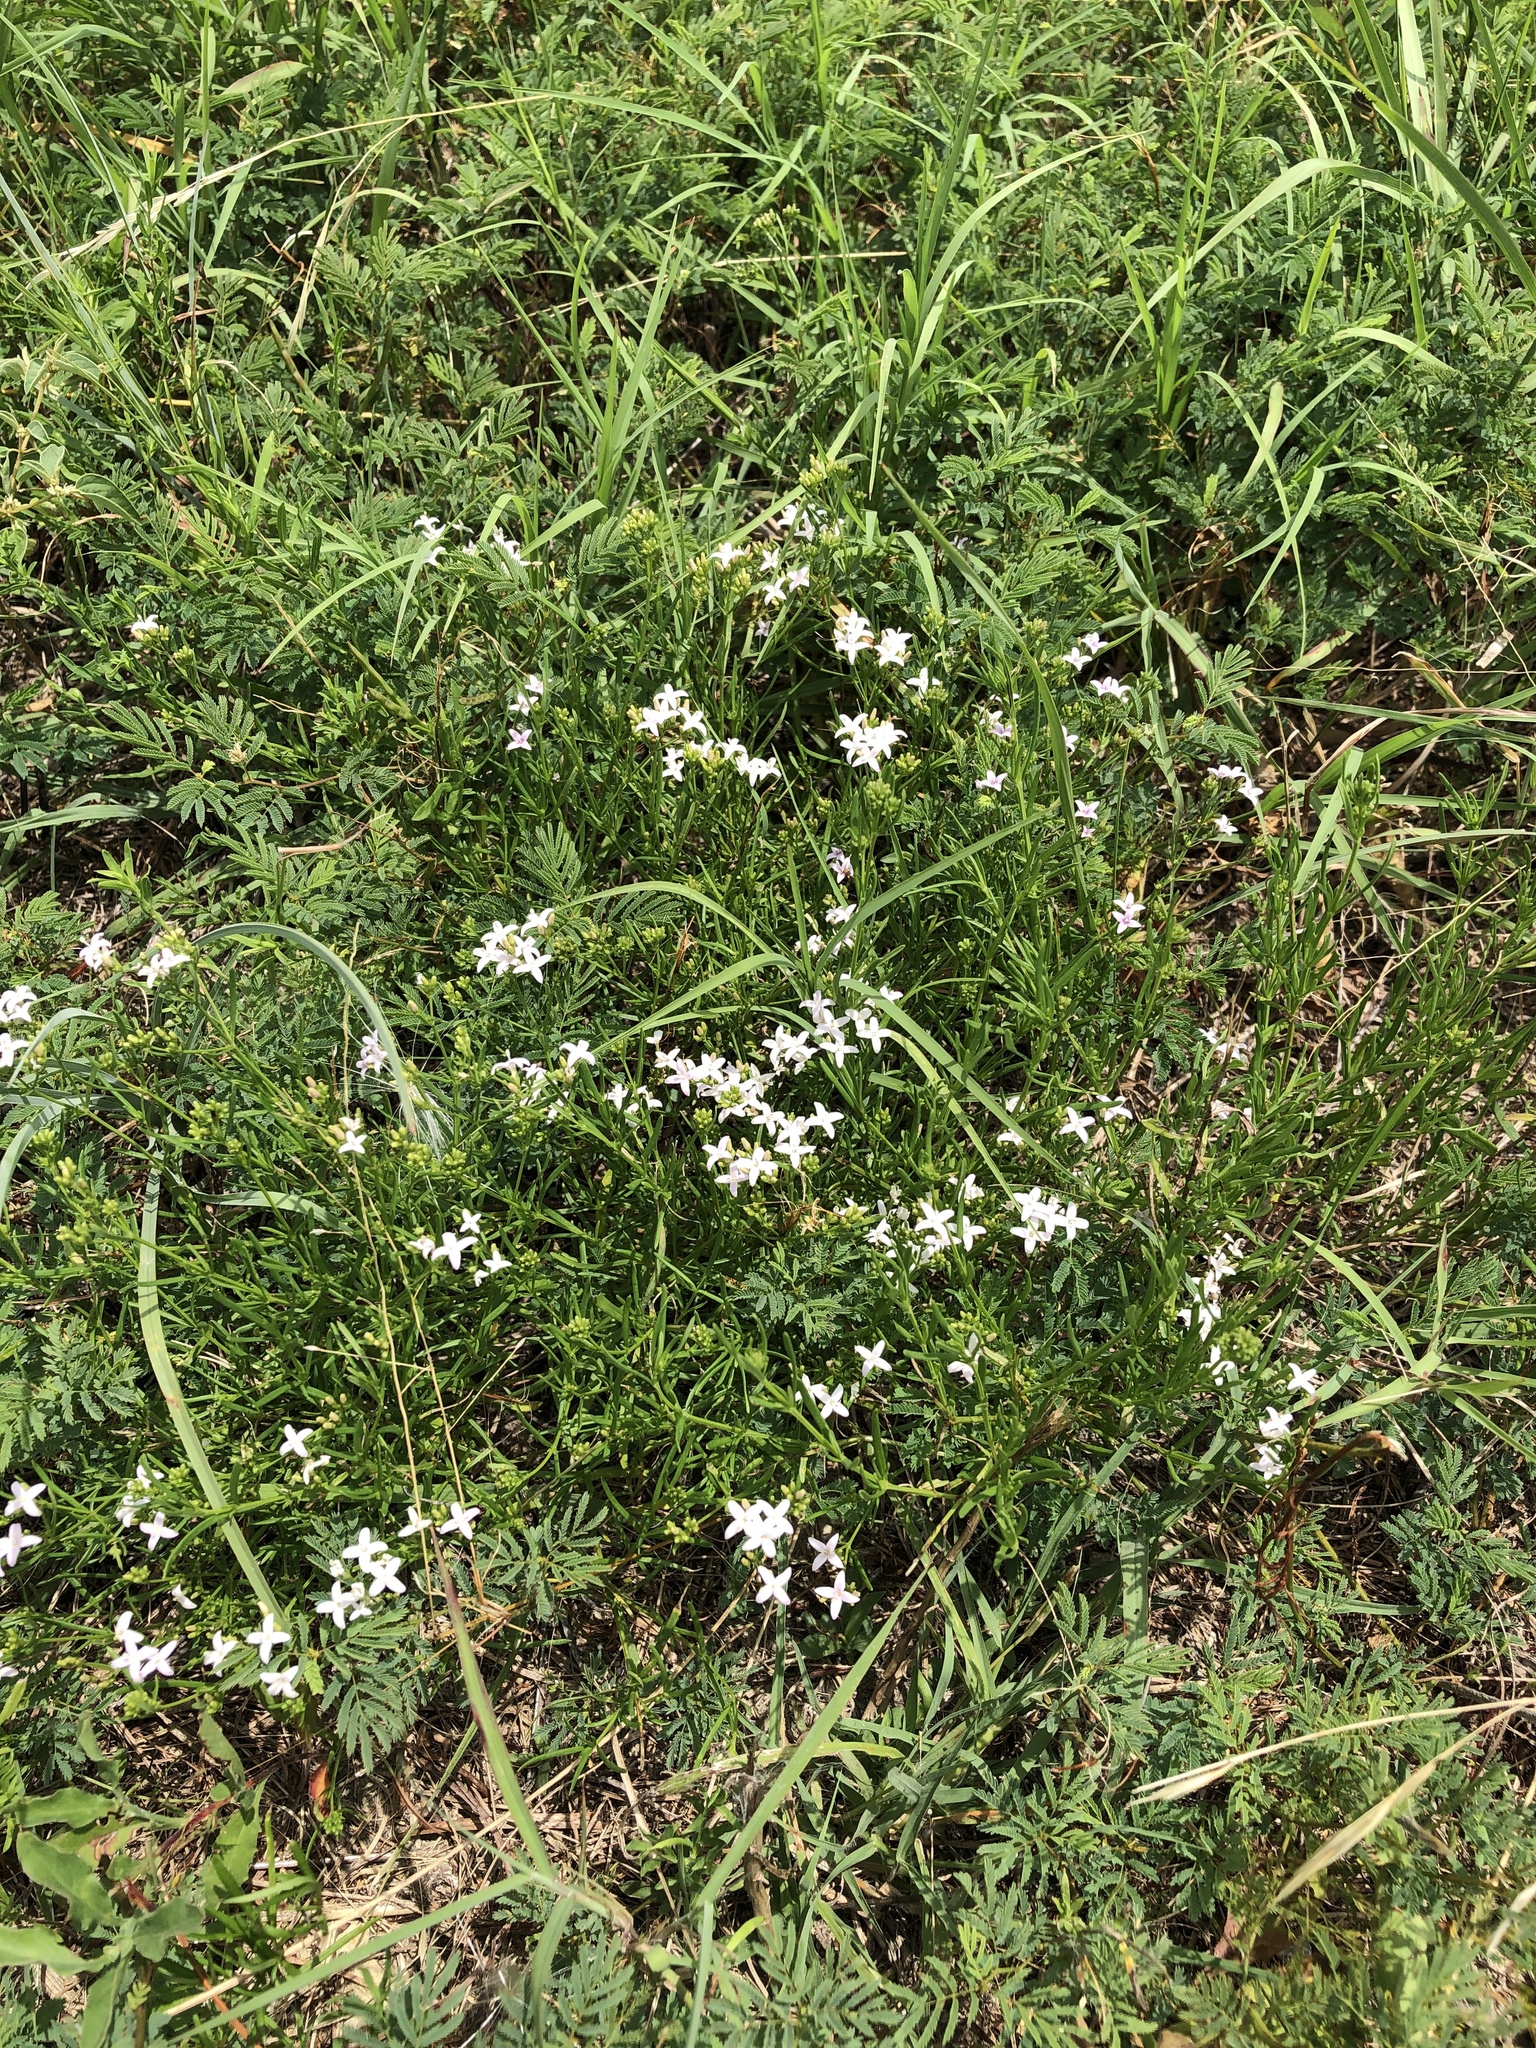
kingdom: Plantae
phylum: Tracheophyta
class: Magnoliopsida
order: Gentianales
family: Rubiaceae
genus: Stenaria
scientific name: Stenaria nigricans
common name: Diamondflowers
